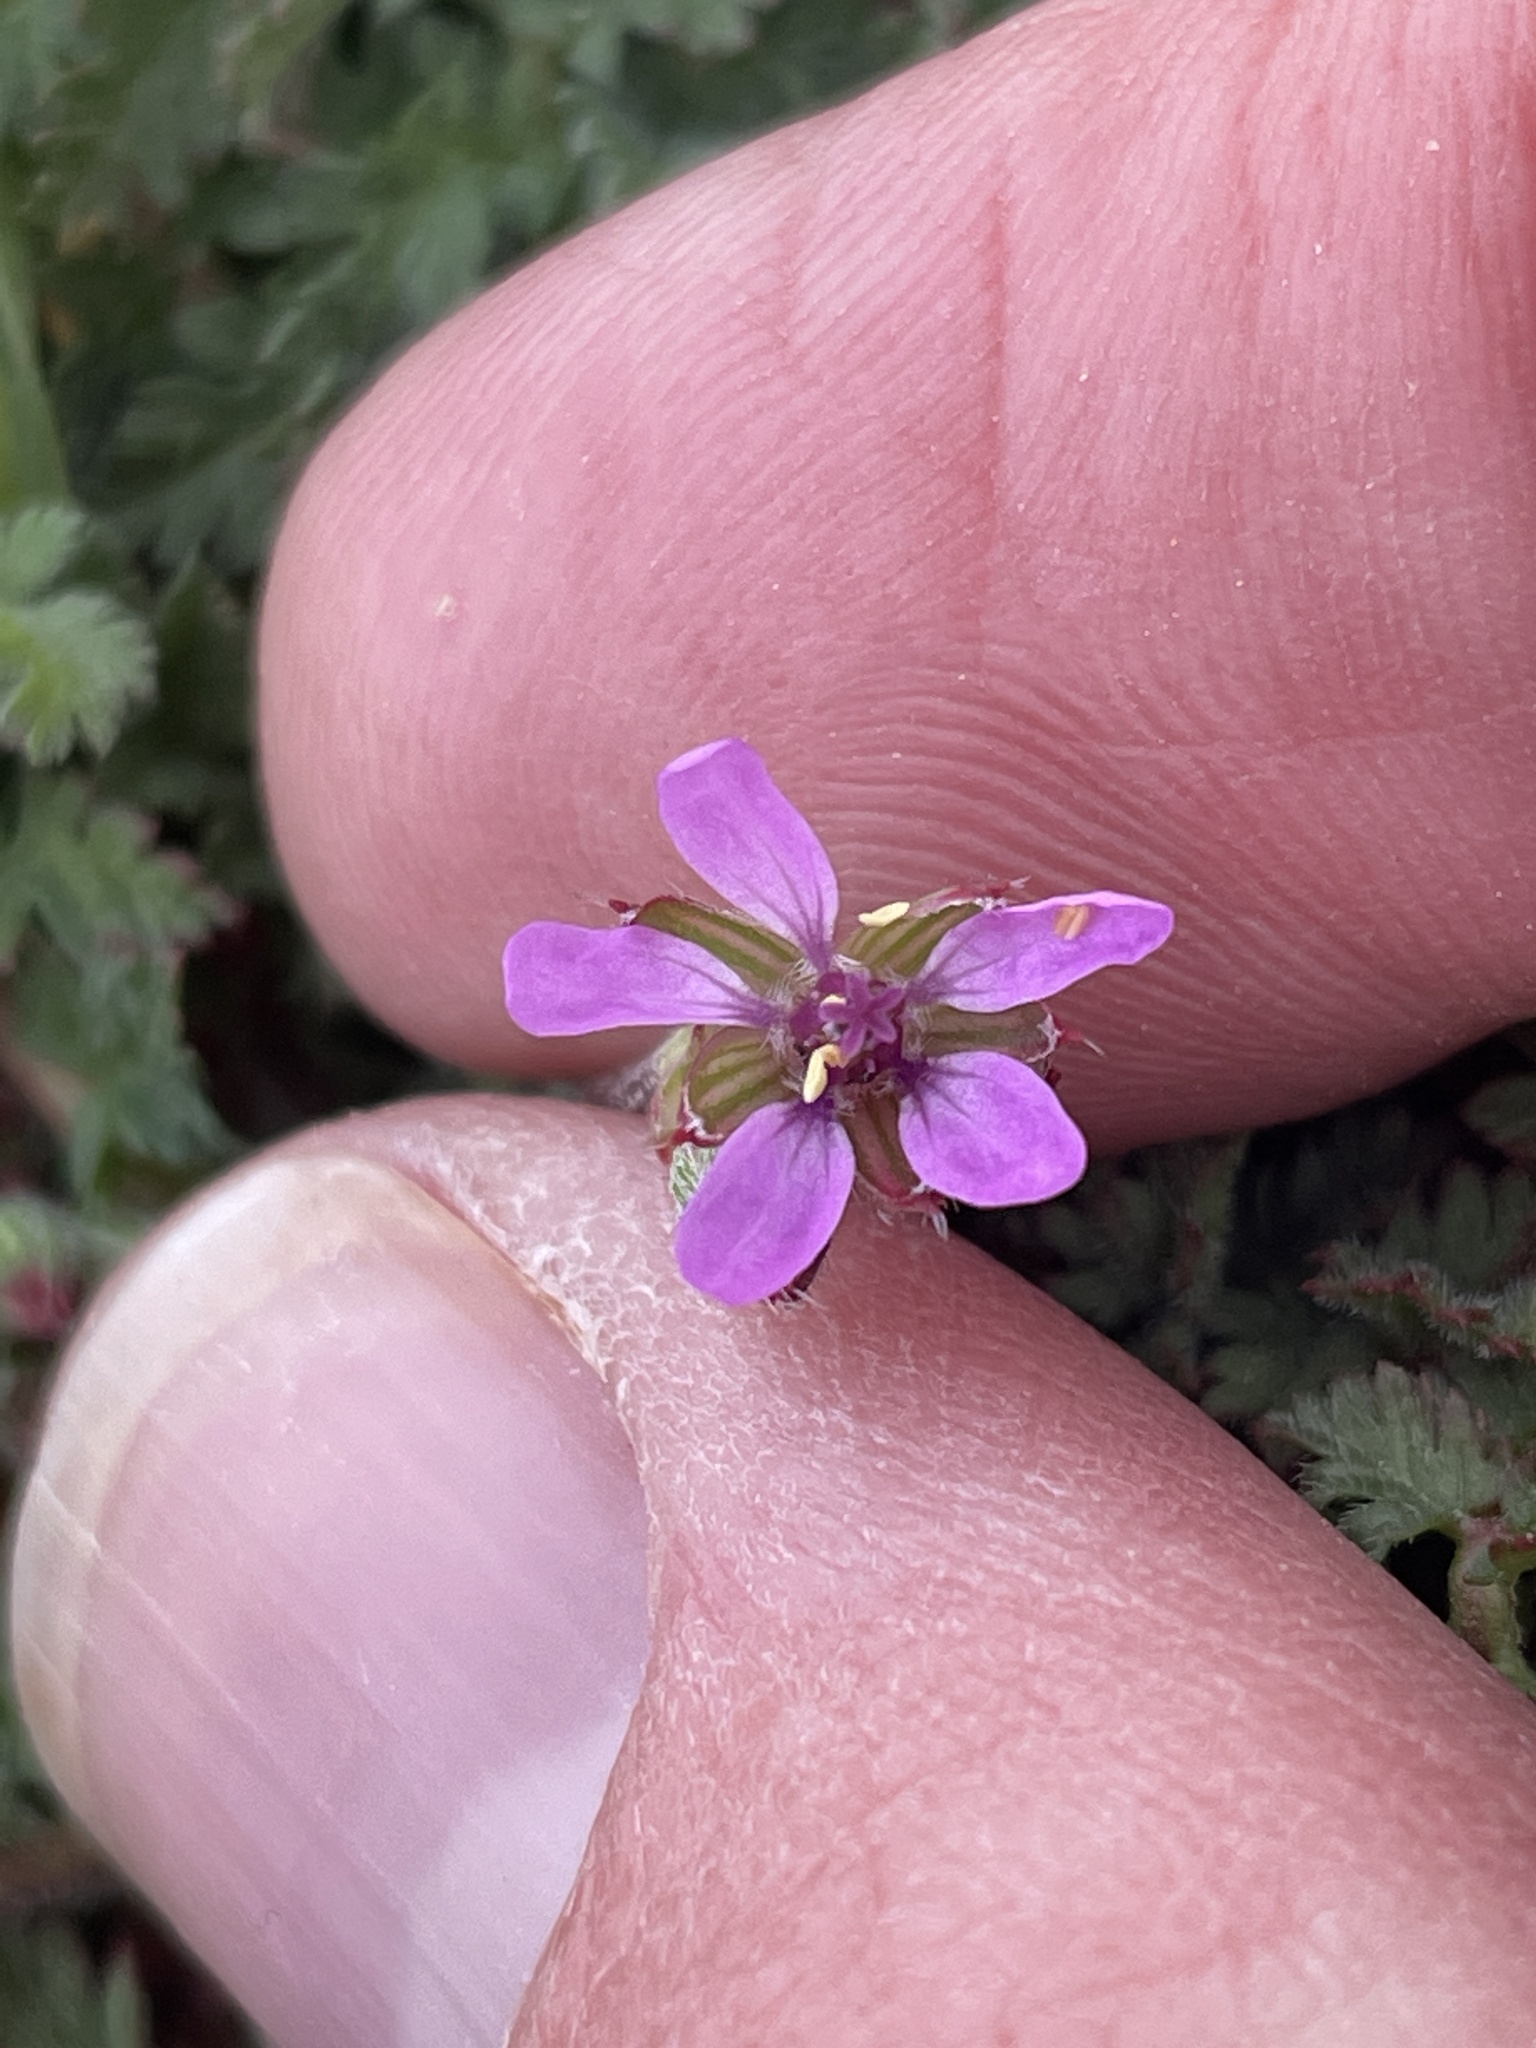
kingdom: Plantae
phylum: Tracheophyta
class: Magnoliopsida
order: Geraniales
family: Geraniaceae
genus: Erodium
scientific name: Erodium cicutarium
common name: Common stork's-bill
